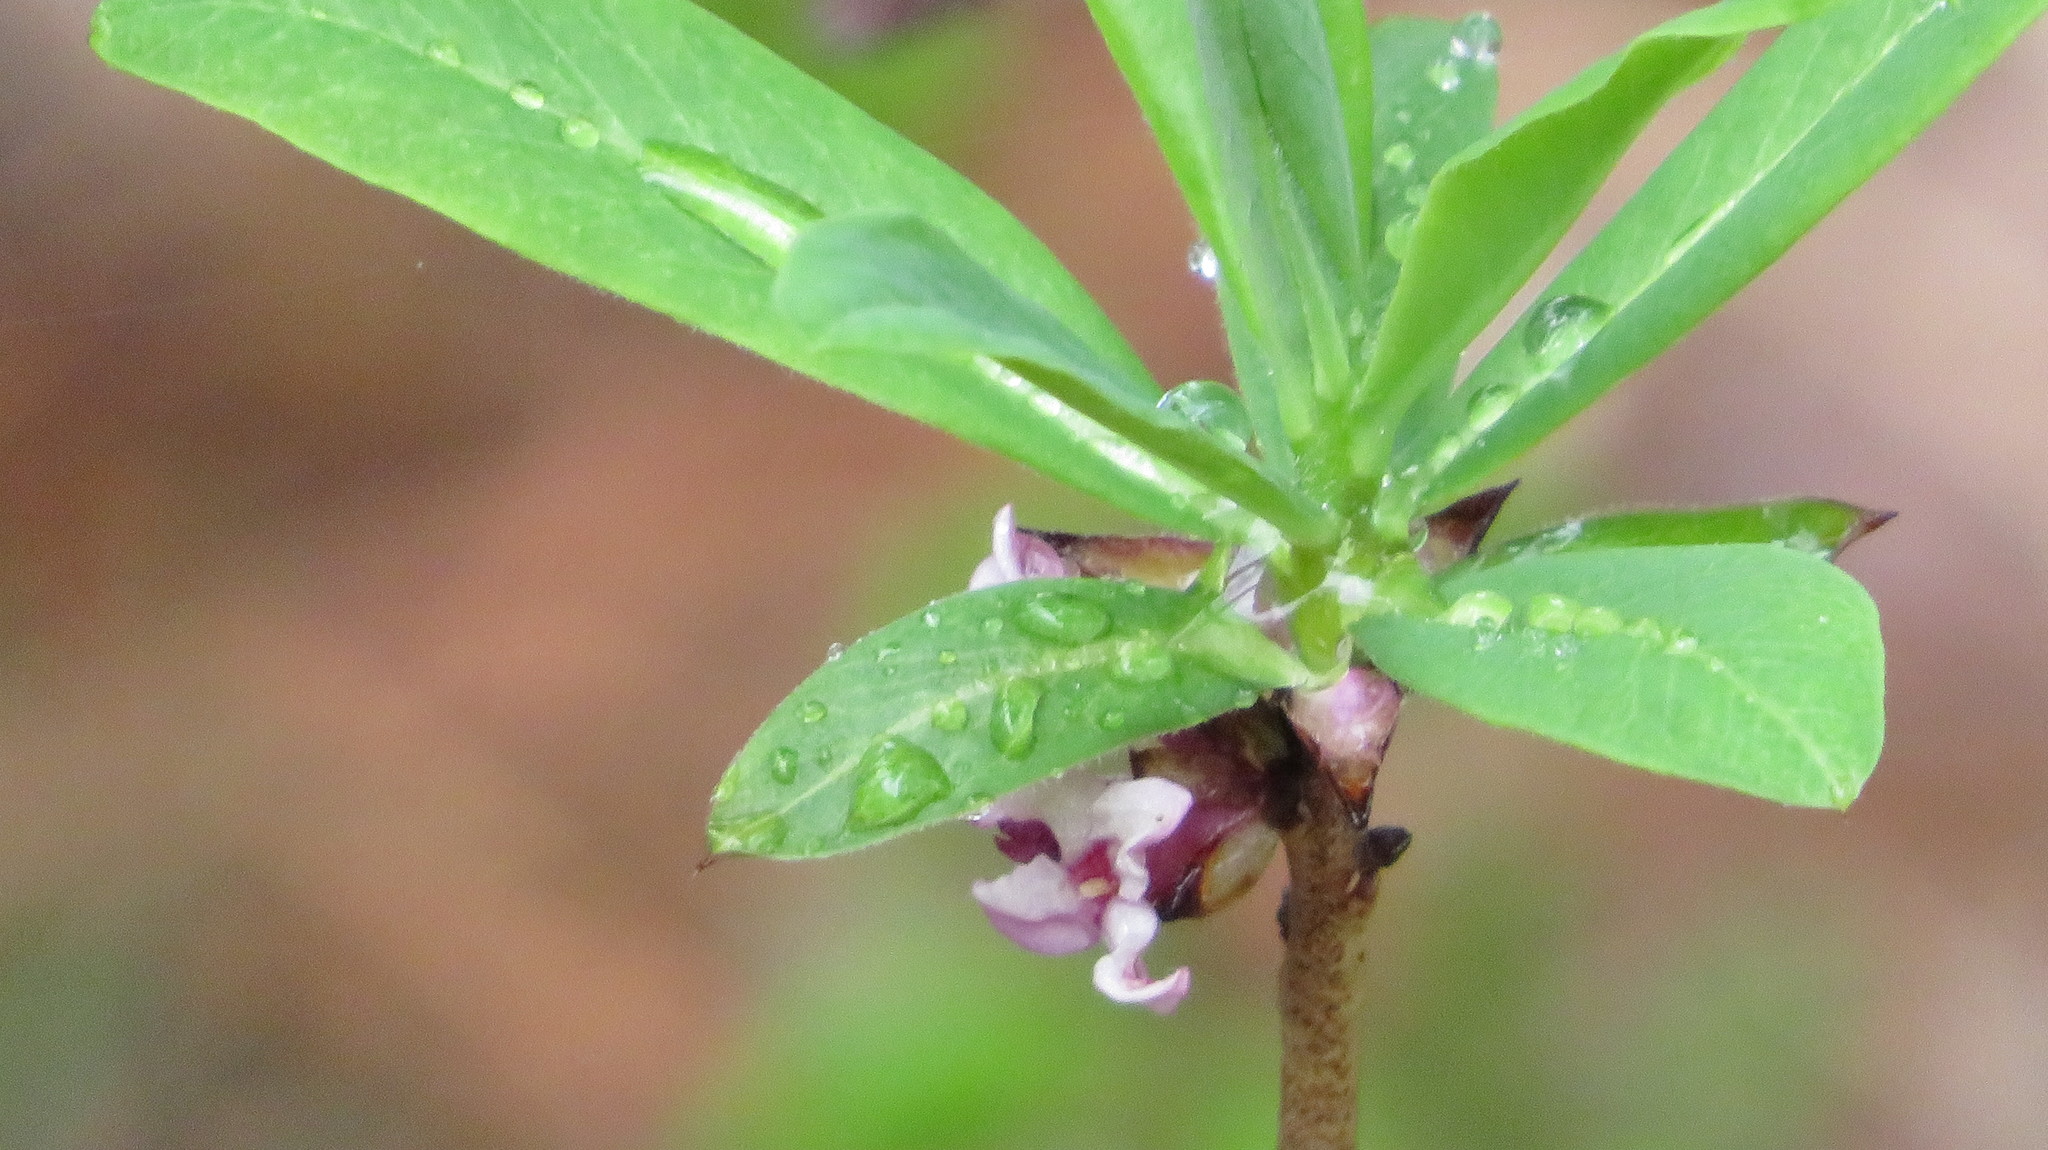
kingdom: Plantae
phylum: Tracheophyta
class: Magnoliopsida
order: Malvales
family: Thymelaeaceae
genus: Daphne
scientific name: Daphne mezereum
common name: Mezereon
